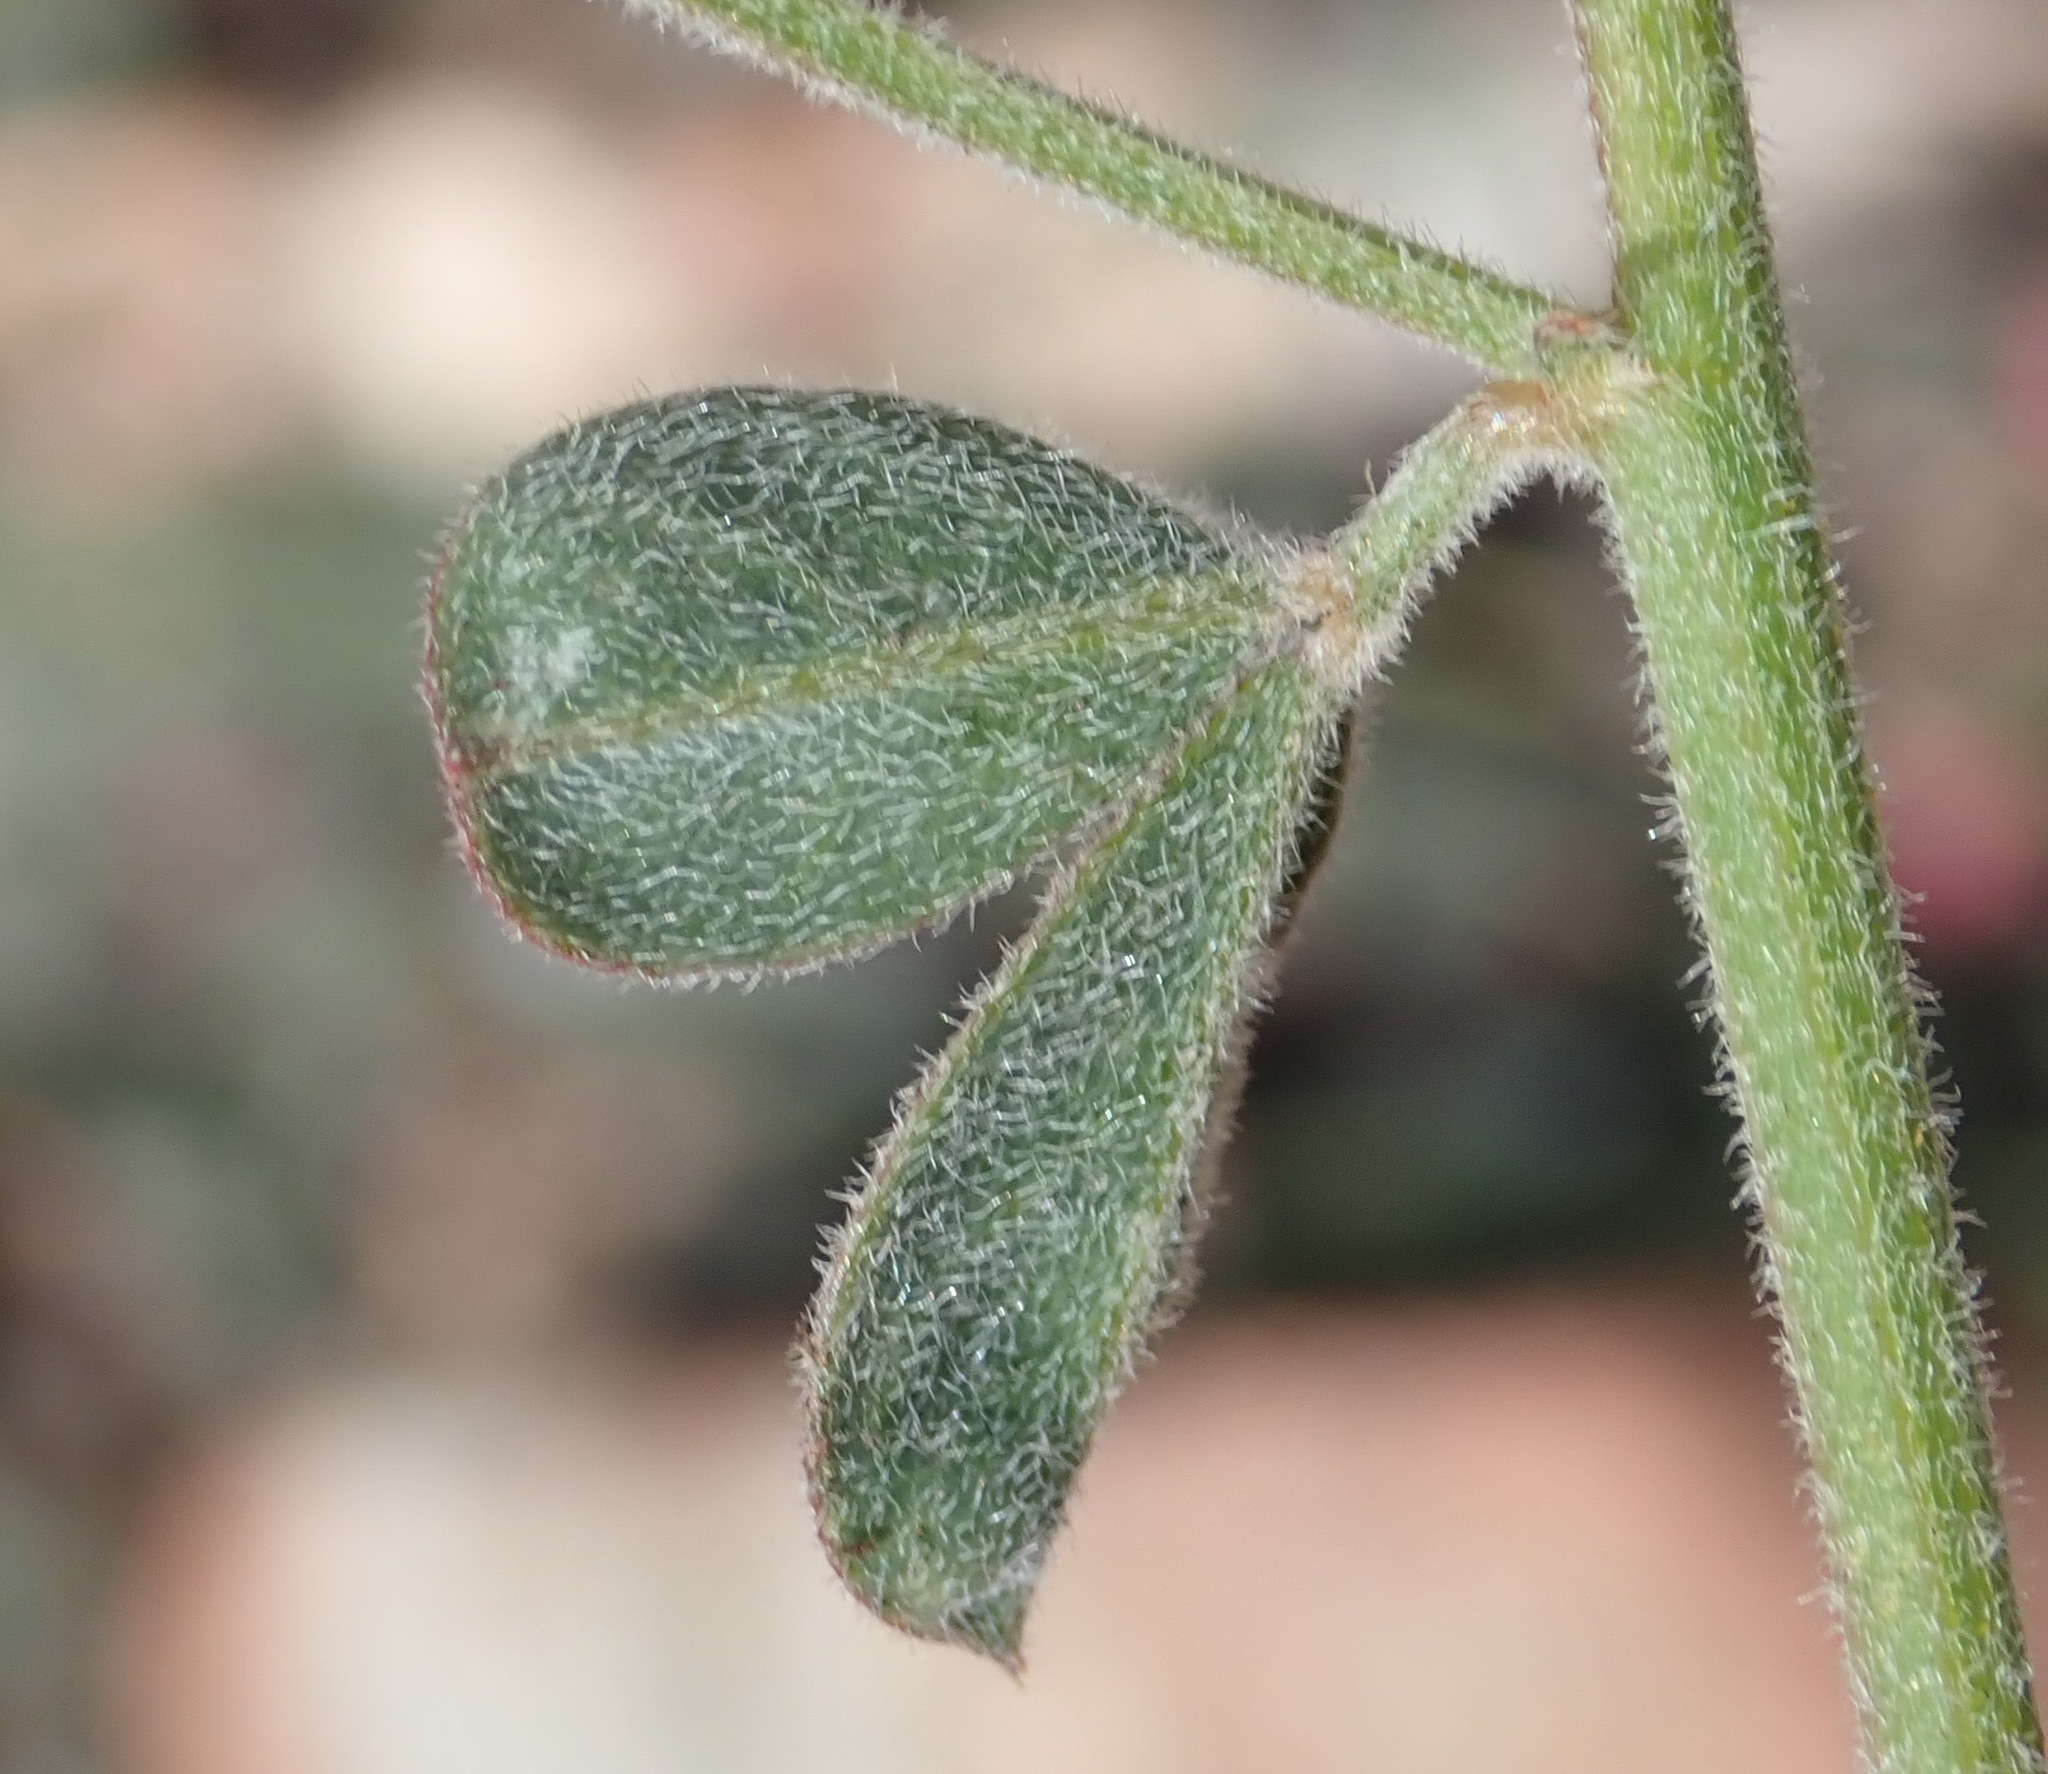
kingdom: Plantae
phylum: Tracheophyta
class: Magnoliopsida
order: Fabales
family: Fabaceae
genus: Indigofera
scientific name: Indigofera priorii
